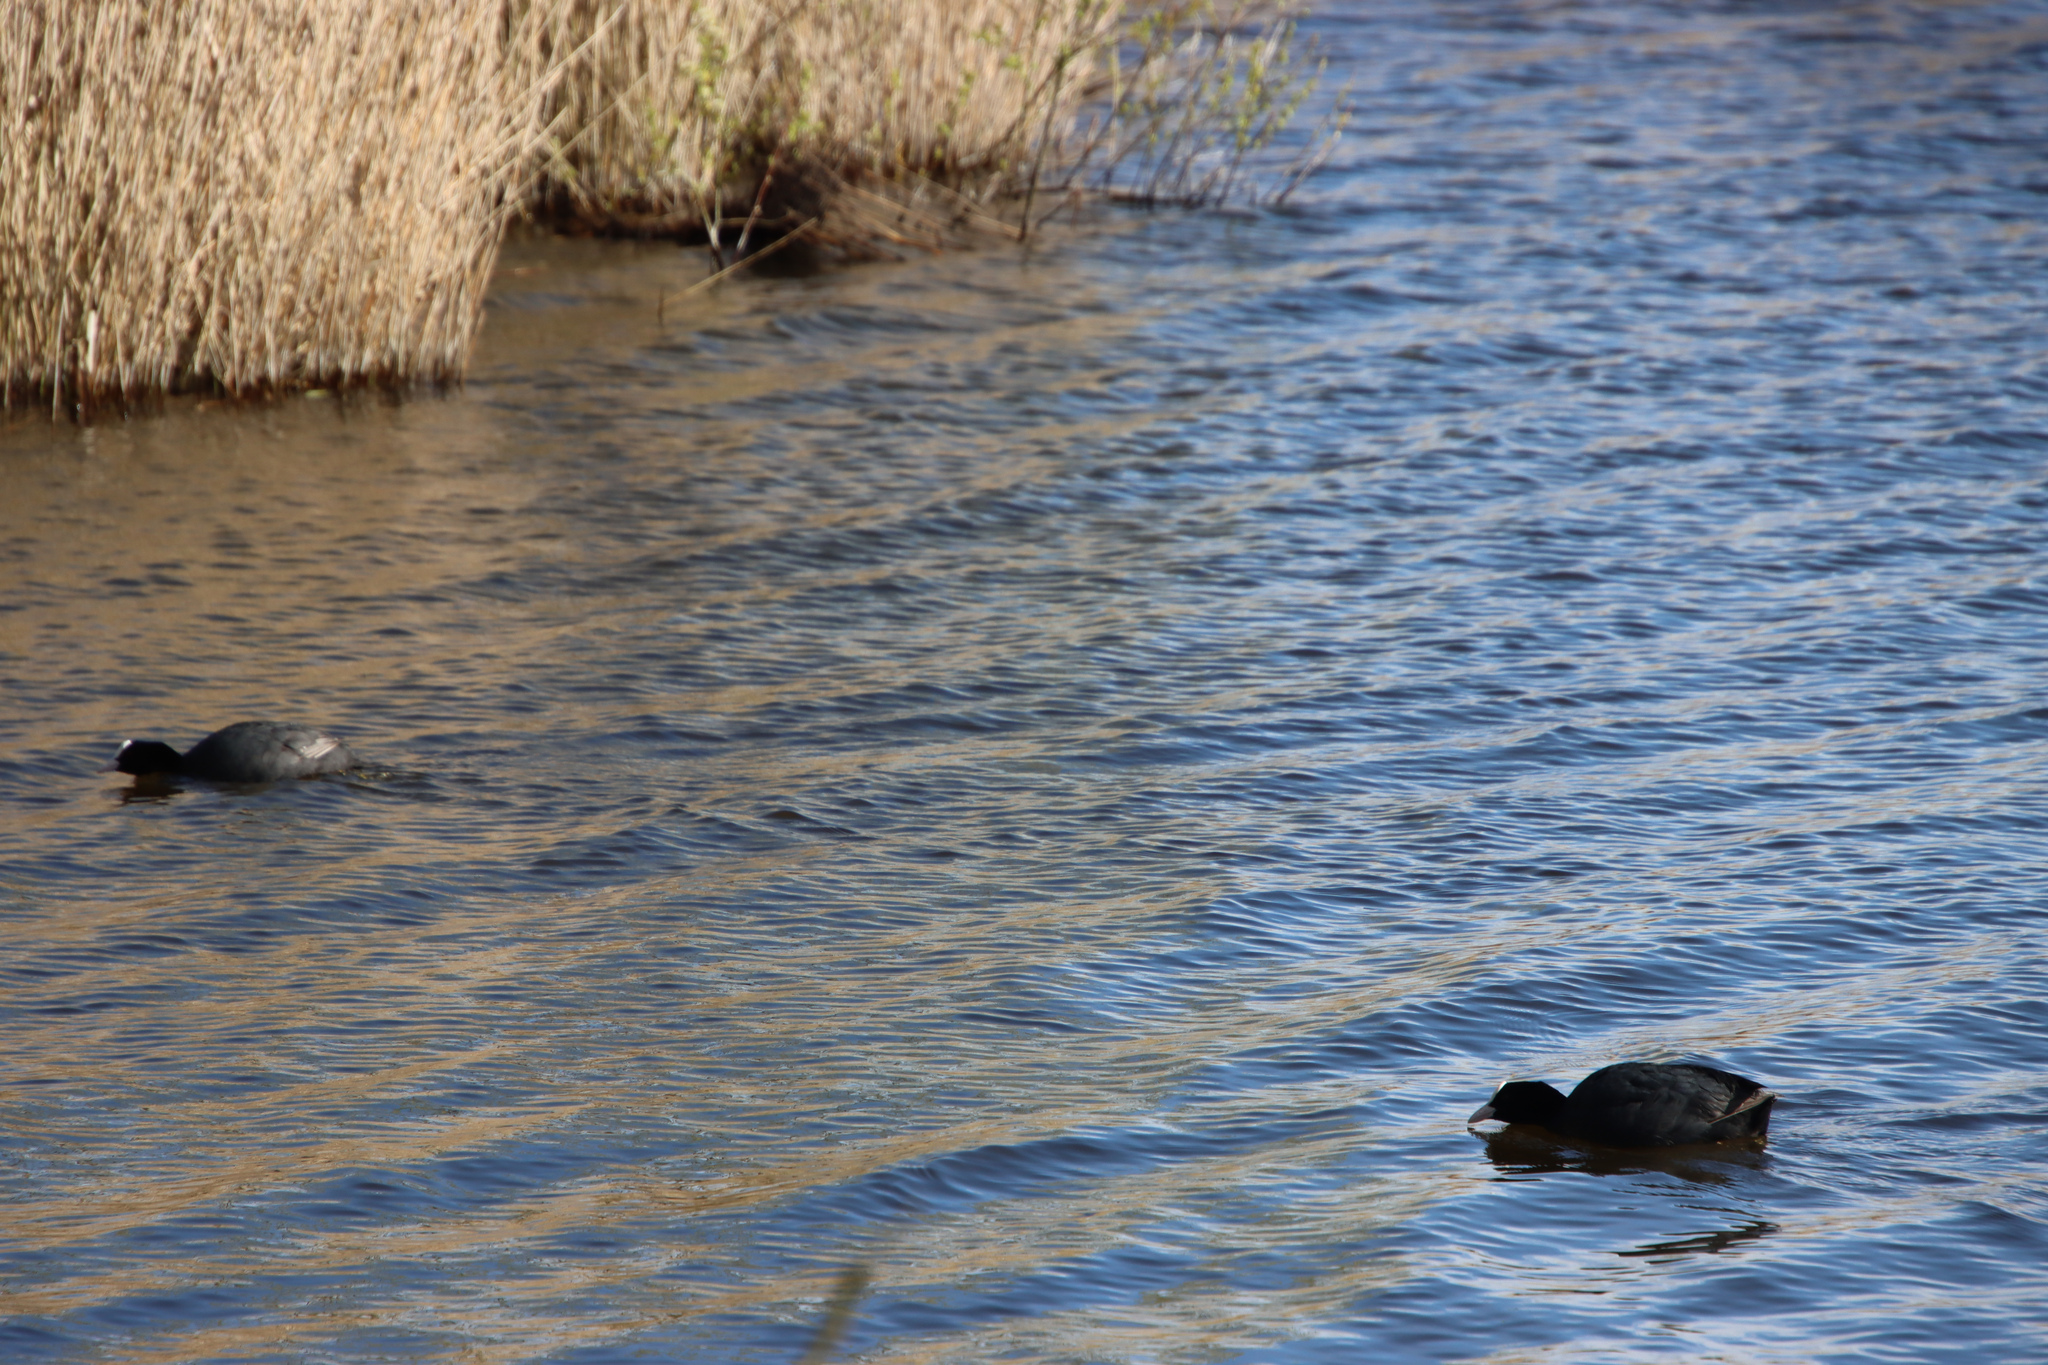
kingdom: Animalia
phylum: Chordata
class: Aves
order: Gruiformes
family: Rallidae
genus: Fulica
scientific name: Fulica atra
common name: Eurasian coot
